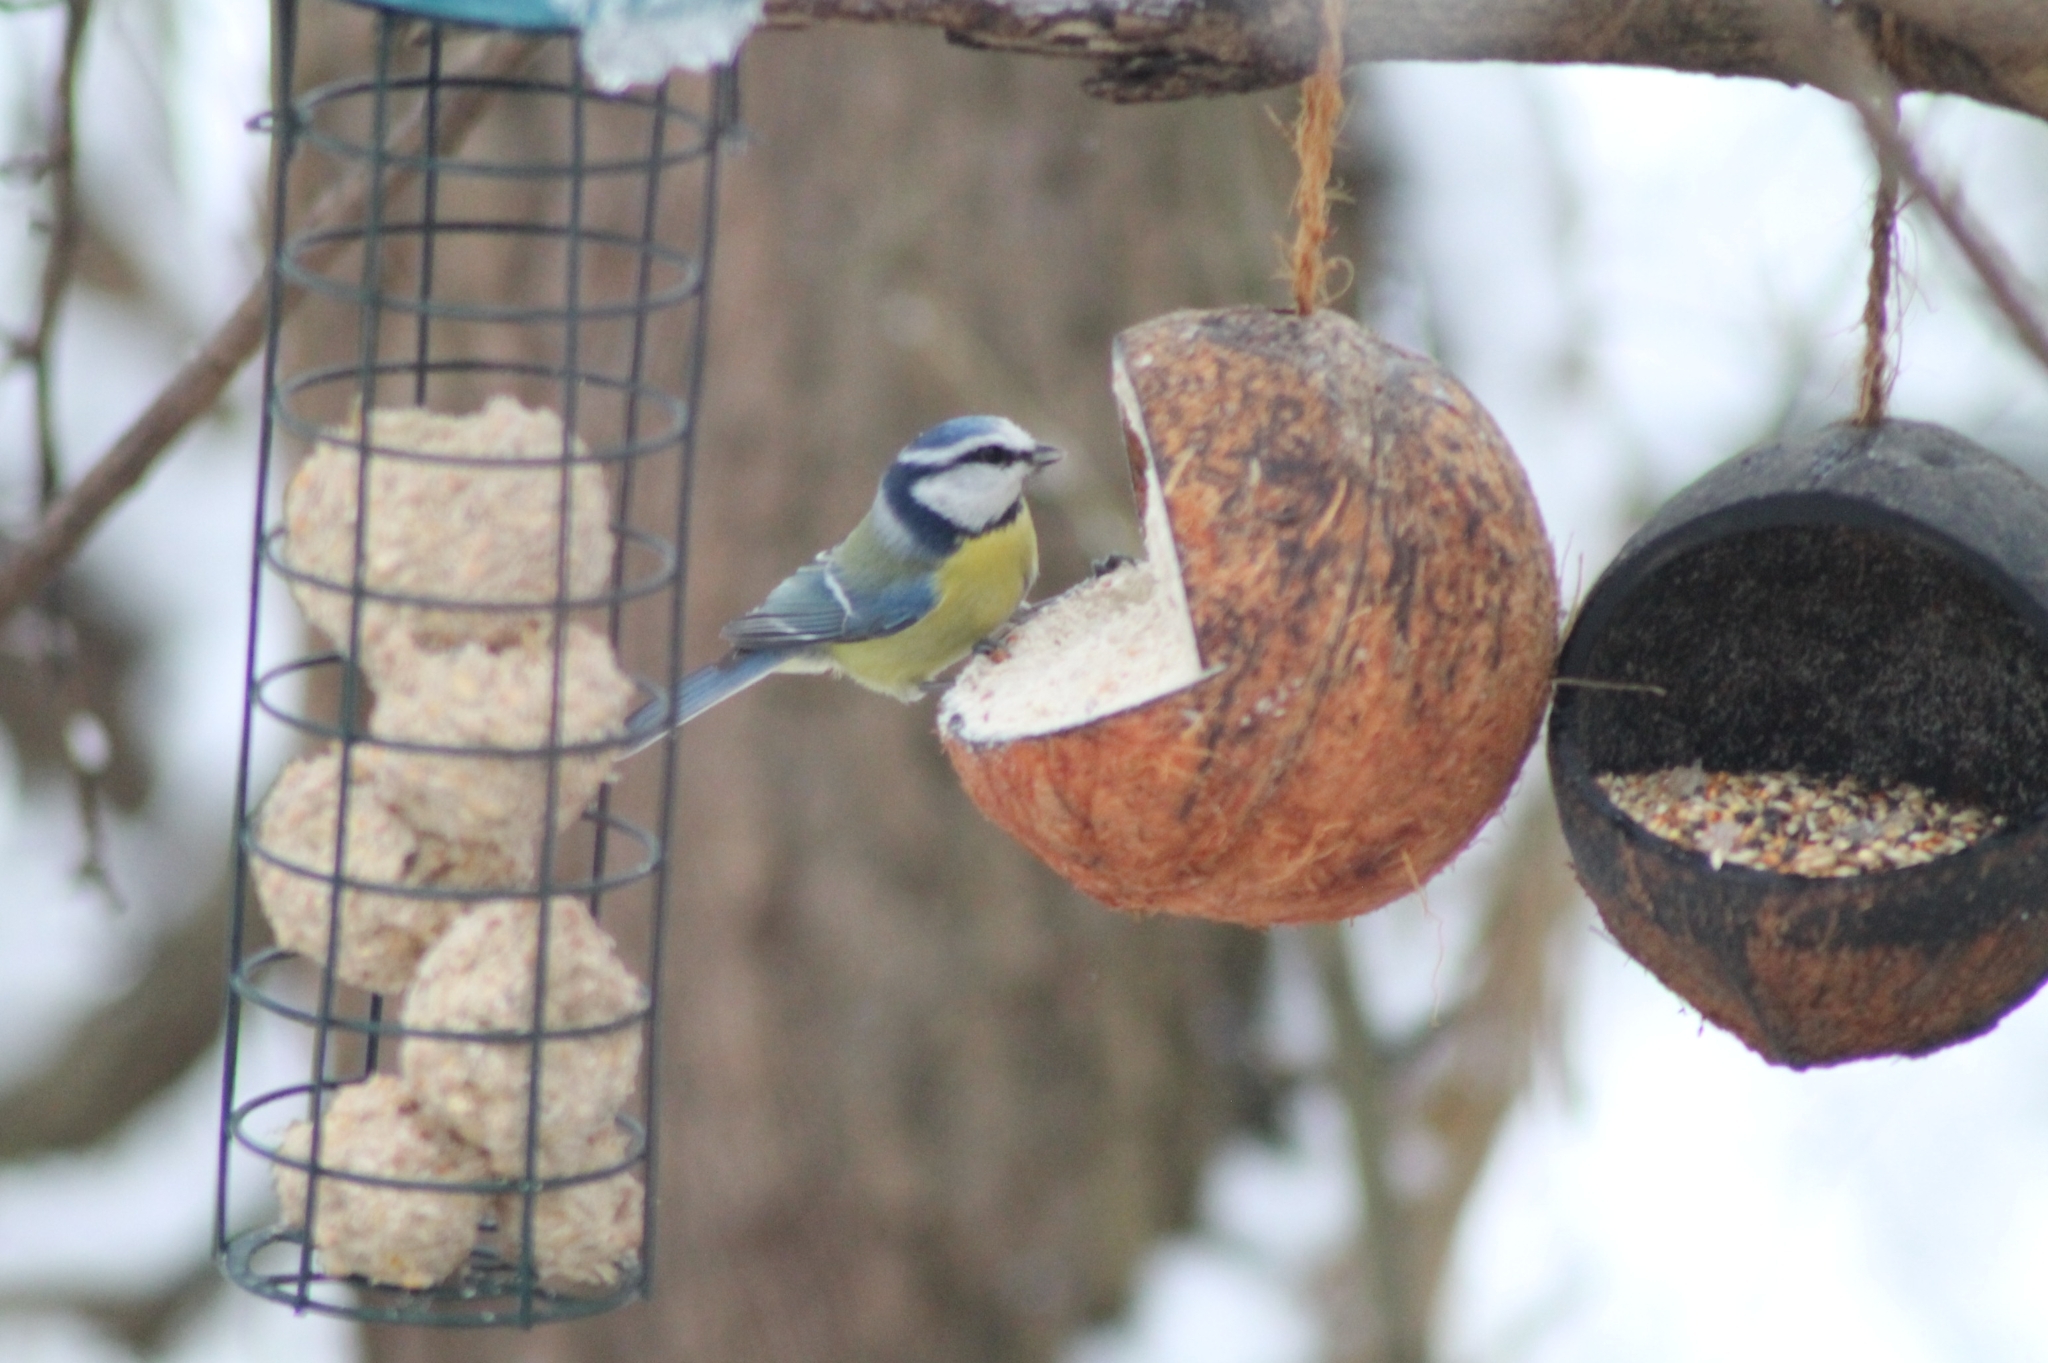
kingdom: Animalia
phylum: Chordata
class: Aves
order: Passeriformes
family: Paridae
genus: Cyanistes
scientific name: Cyanistes caeruleus
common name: Eurasian blue tit
